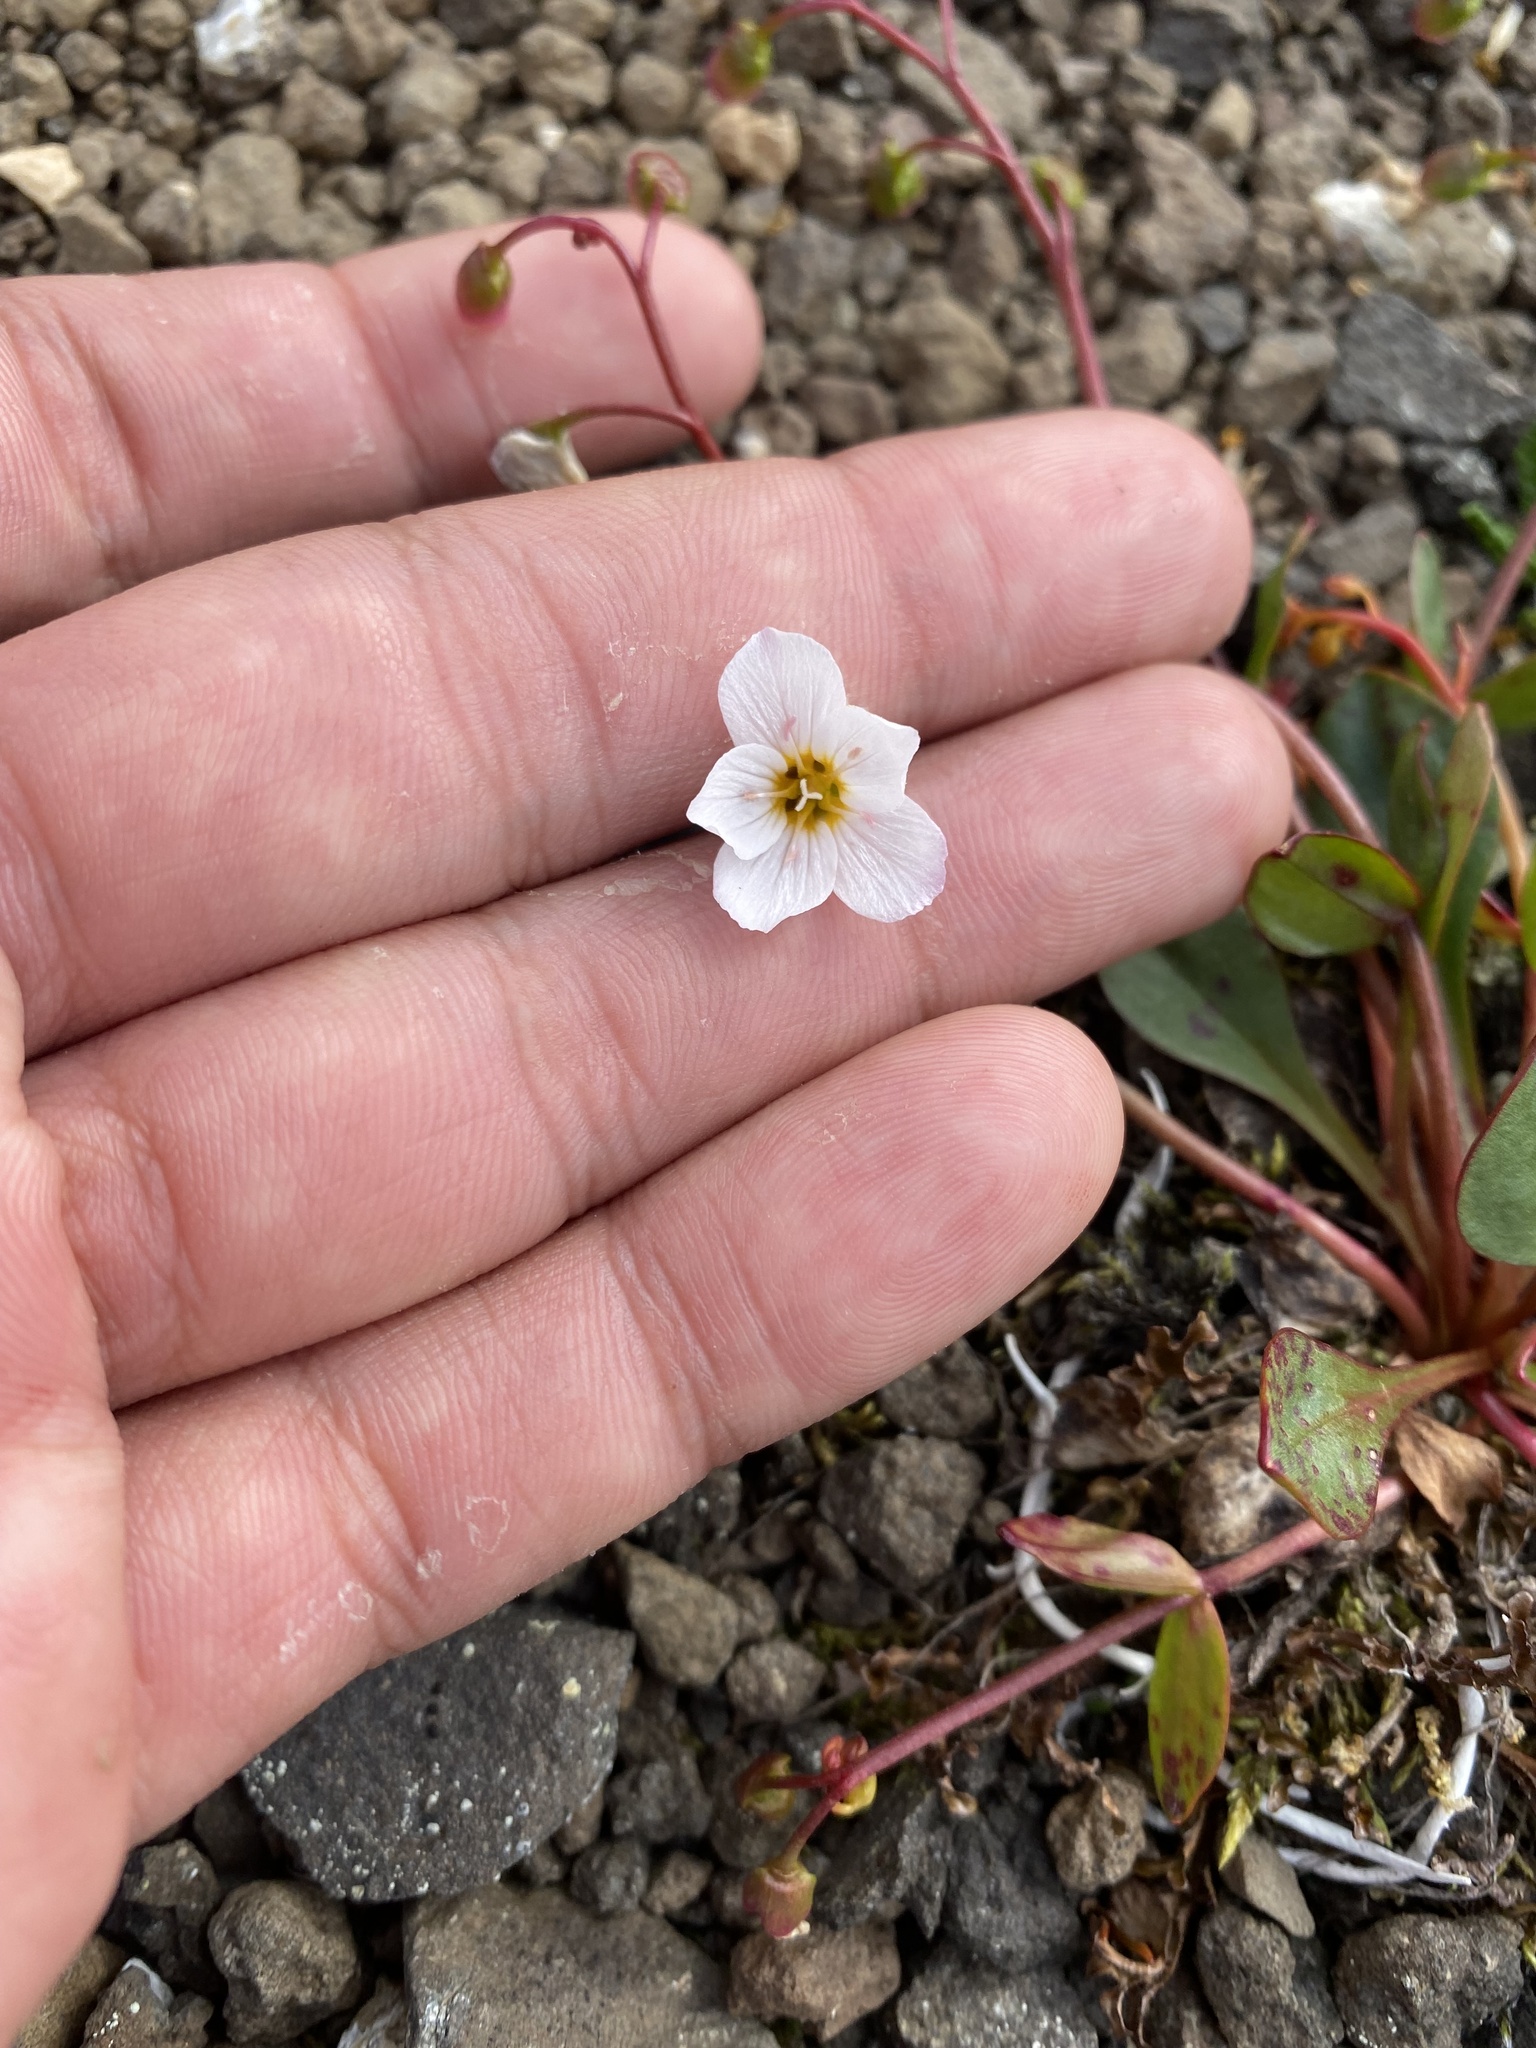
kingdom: Plantae
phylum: Tracheophyta
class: Magnoliopsida
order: Caryophyllales
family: Montiaceae
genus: Claytonia
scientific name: Claytonia joanneana
